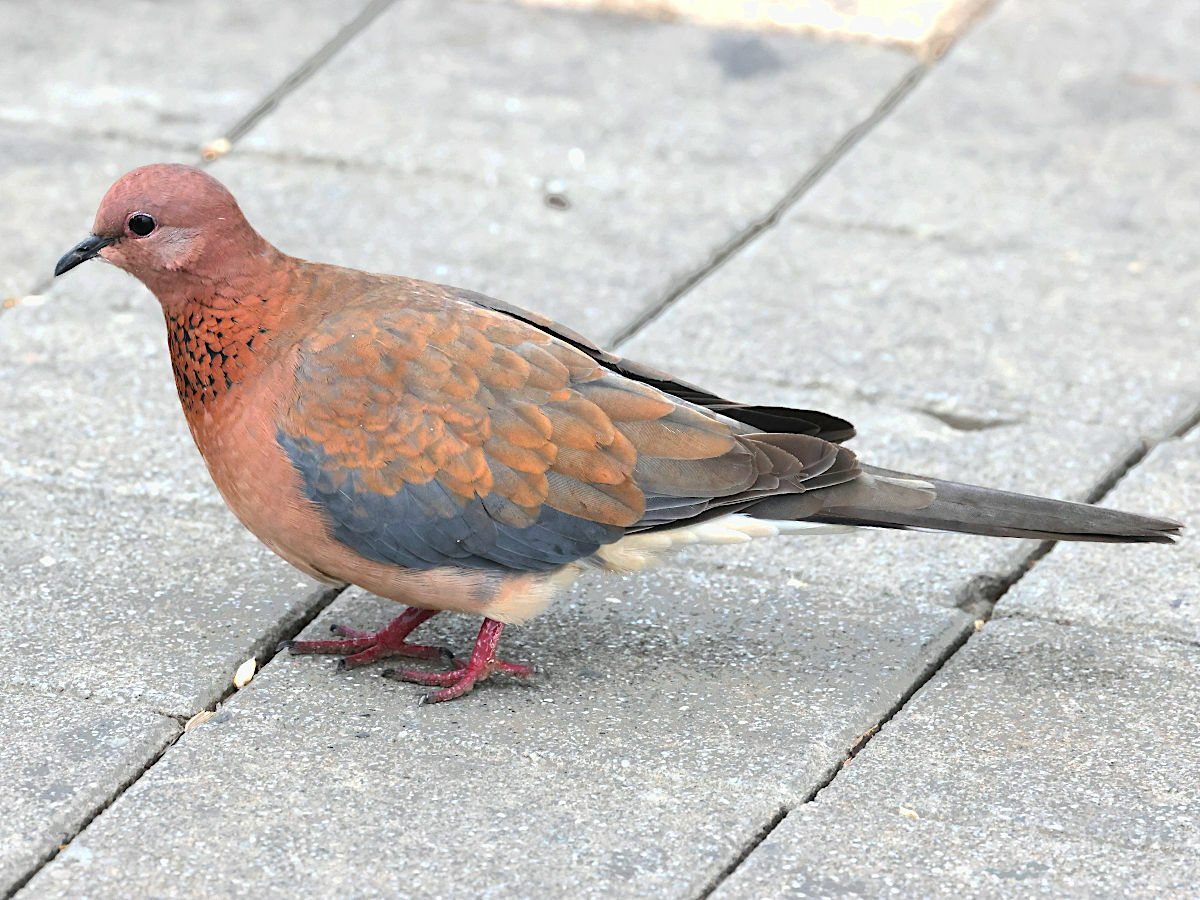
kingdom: Animalia
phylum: Chordata
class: Aves
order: Columbiformes
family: Columbidae
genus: Spilopelia
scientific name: Spilopelia senegalensis
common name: Laughing dove
